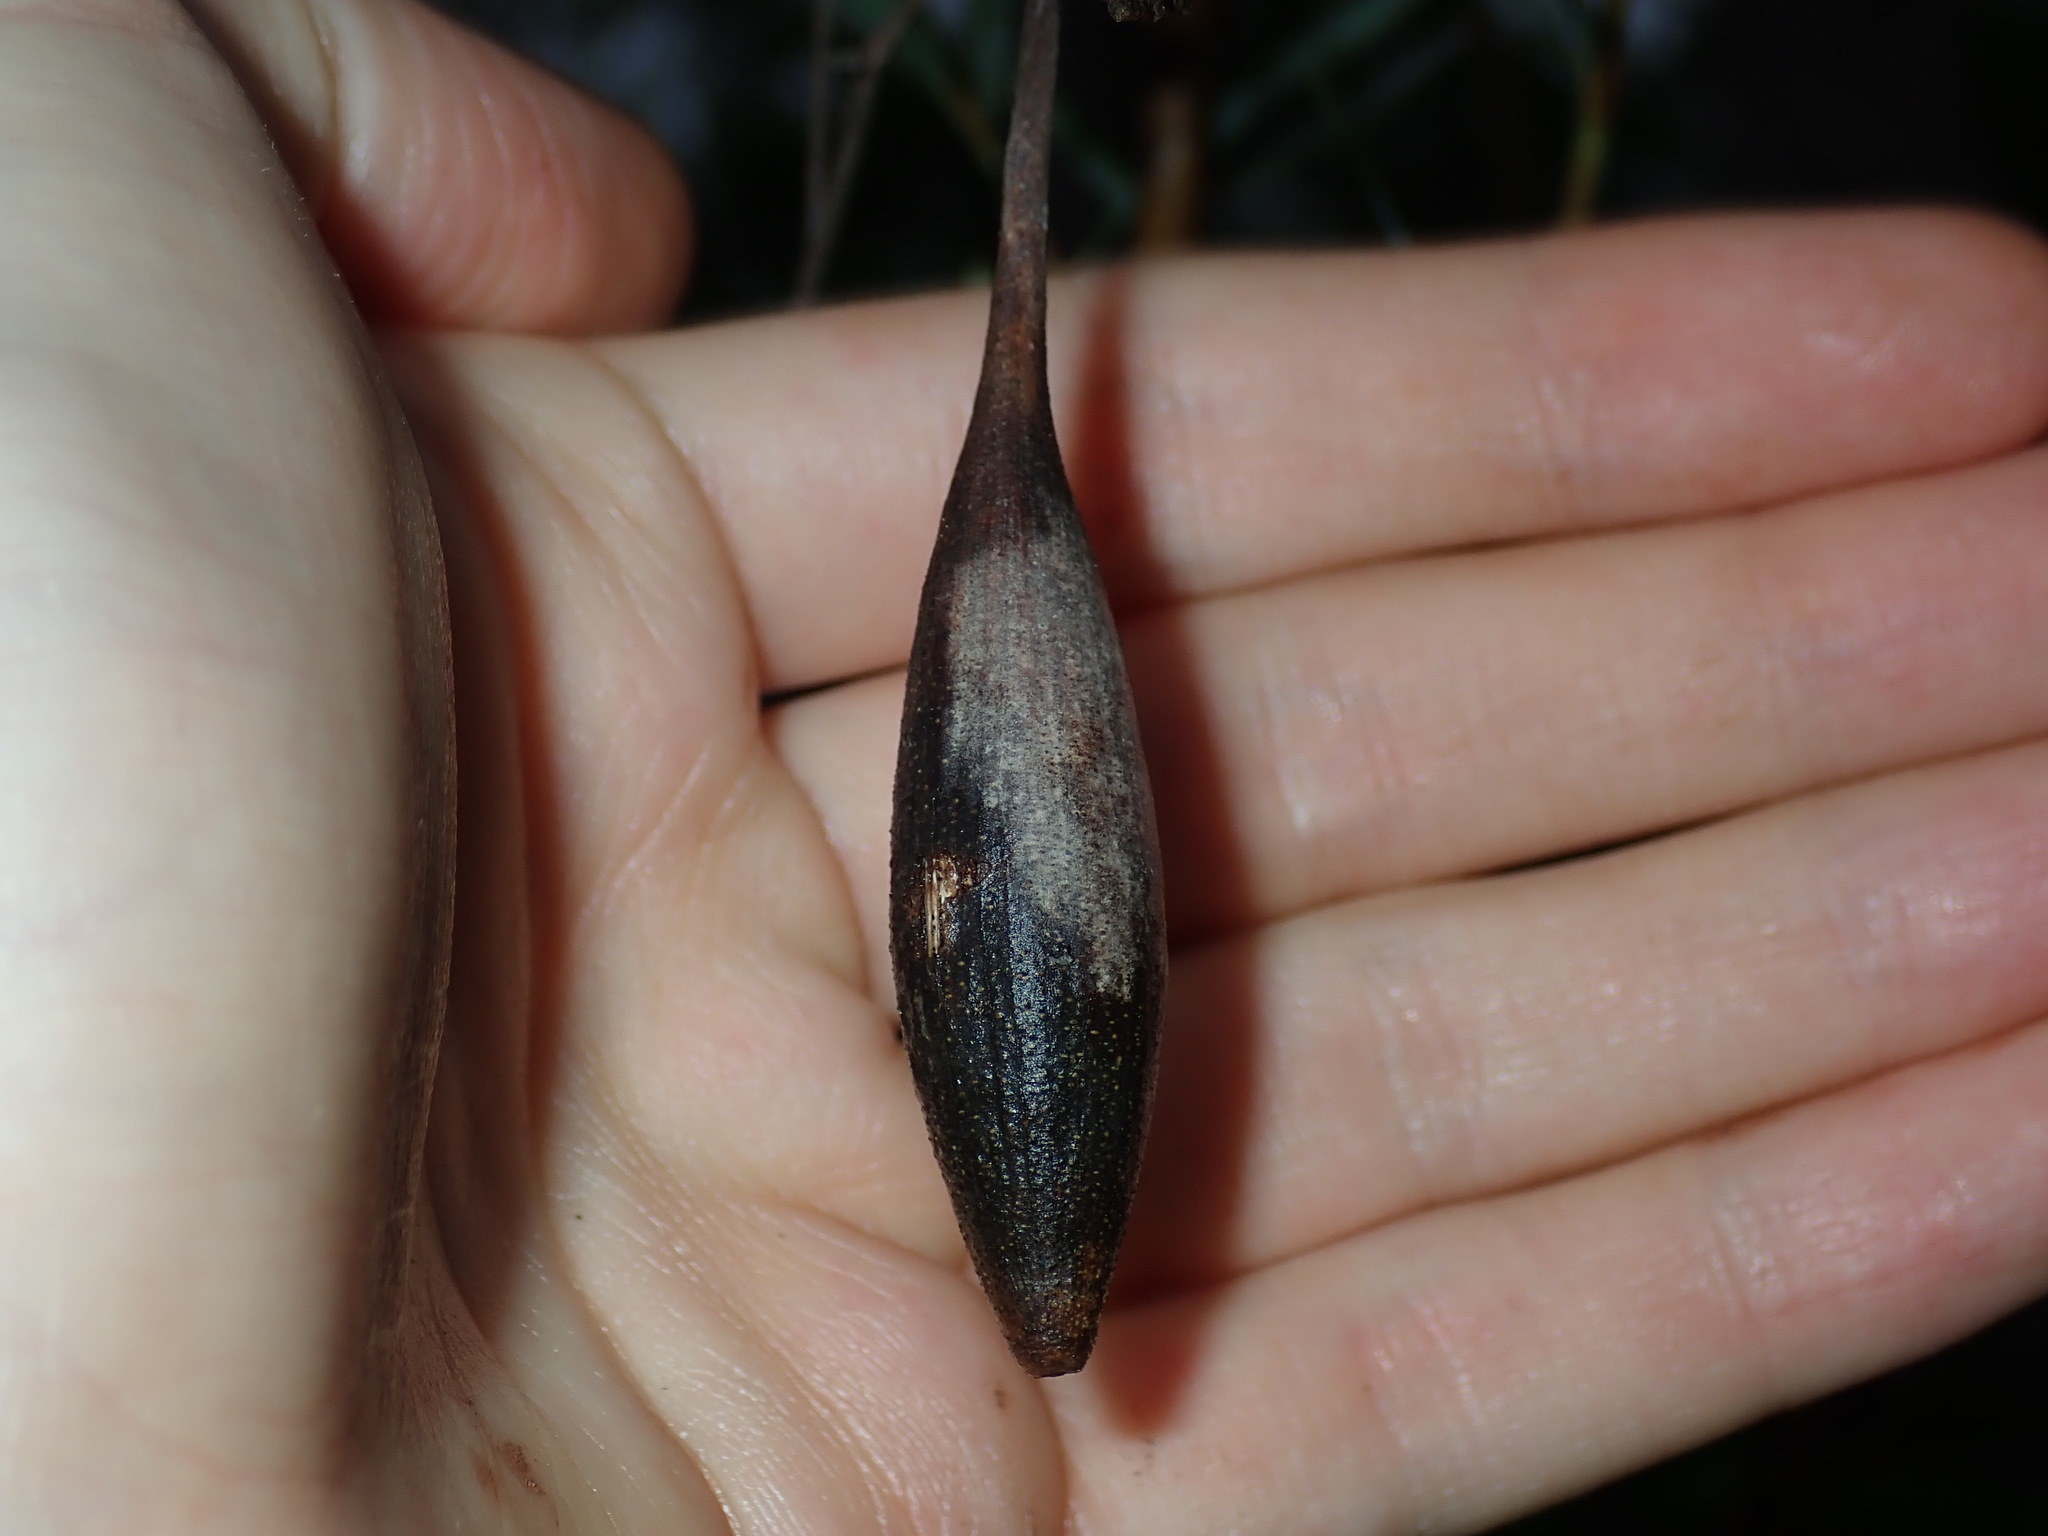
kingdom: Animalia
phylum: Arthropoda
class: Insecta
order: Hemiptera
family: Eriococcidae
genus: Apiomorpha
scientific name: Apiomorpha pedunculata
